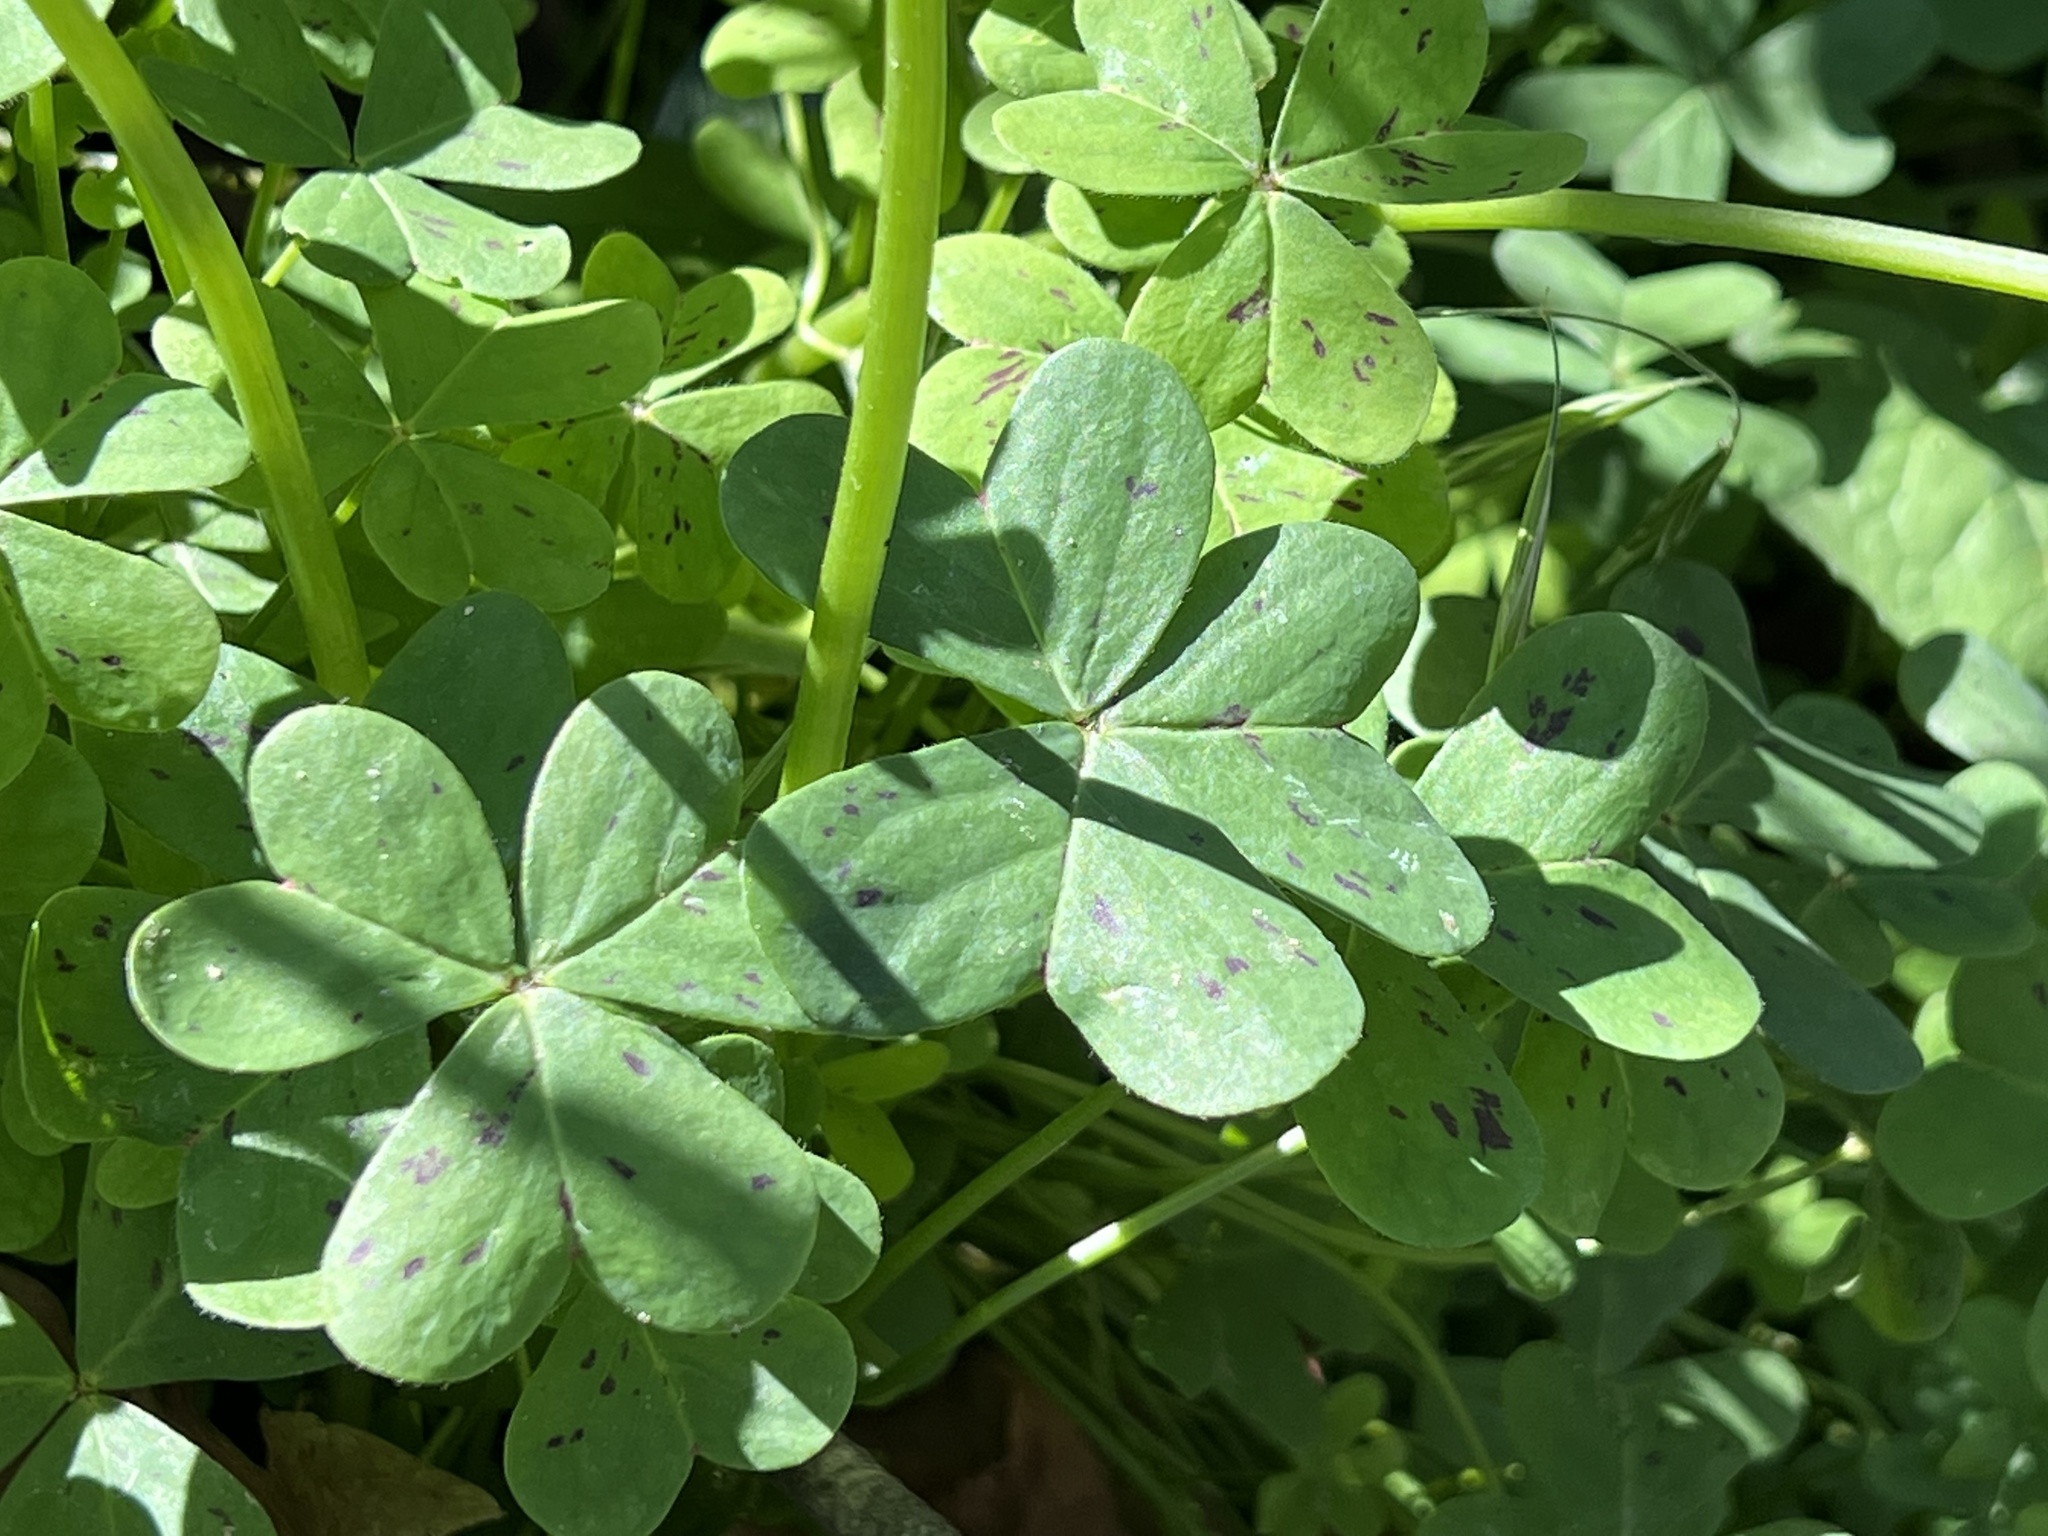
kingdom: Plantae
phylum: Tracheophyta
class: Magnoliopsida
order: Oxalidales
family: Oxalidaceae
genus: Oxalis
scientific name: Oxalis pes-caprae
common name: Bermuda-buttercup
